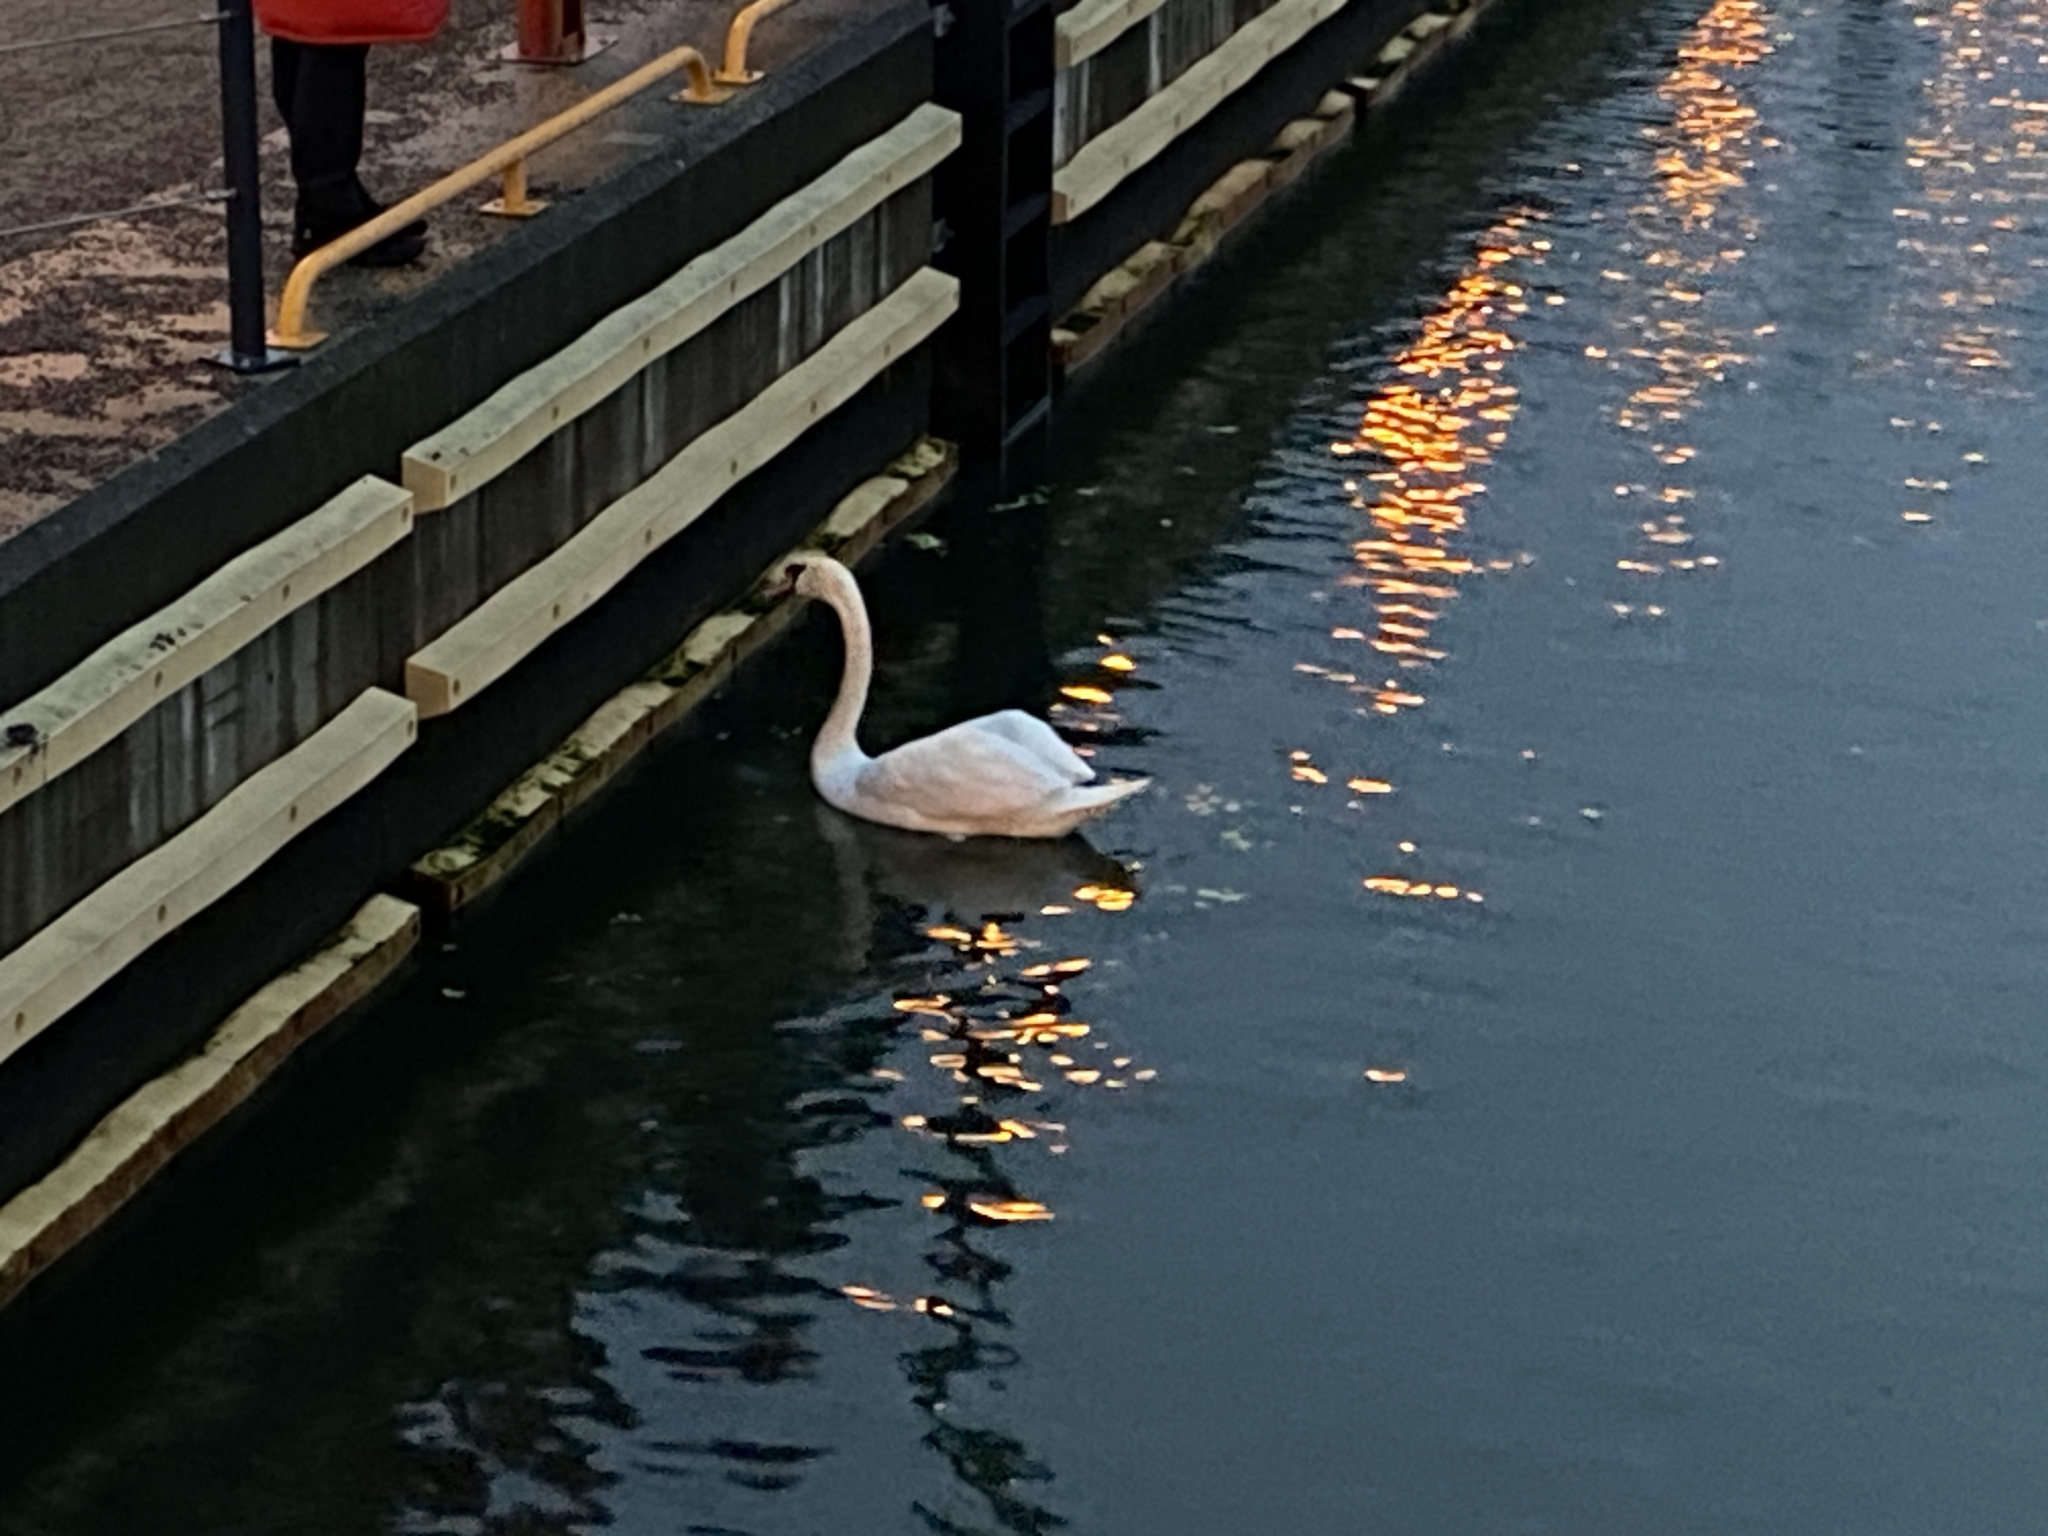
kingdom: Animalia
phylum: Chordata
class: Aves
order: Anseriformes
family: Anatidae
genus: Cygnus
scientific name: Cygnus olor
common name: Mute swan
